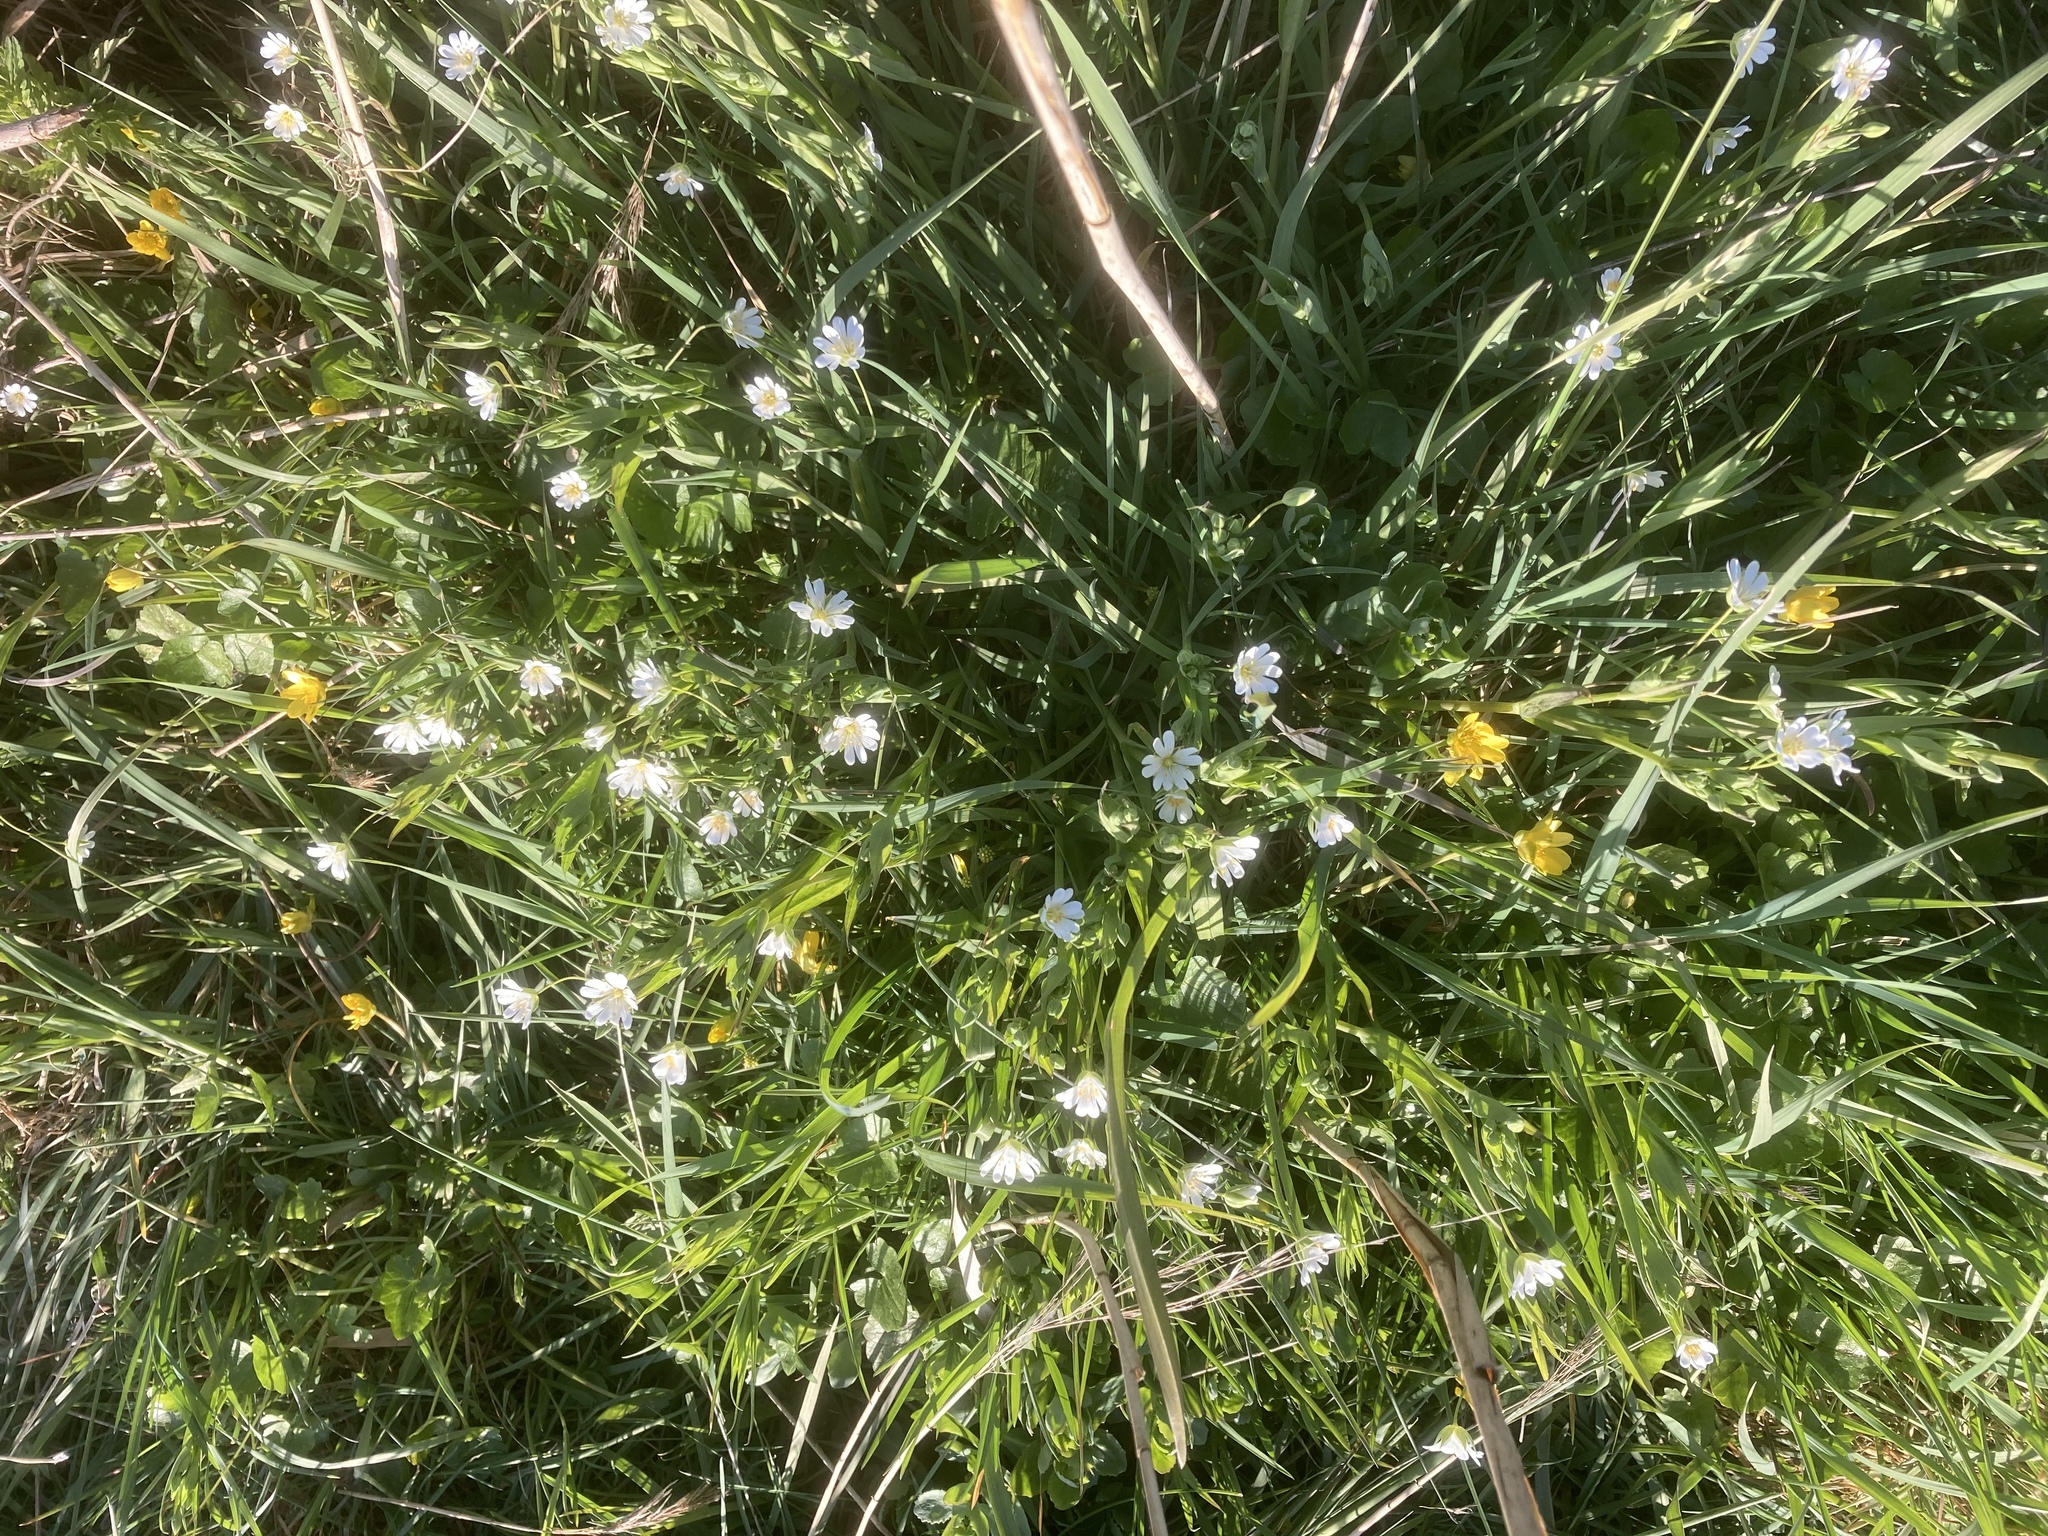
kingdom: Plantae
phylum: Tracheophyta
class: Magnoliopsida
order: Caryophyllales
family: Caryophyllaceae
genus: Rabelera
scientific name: Rabelera holostea
